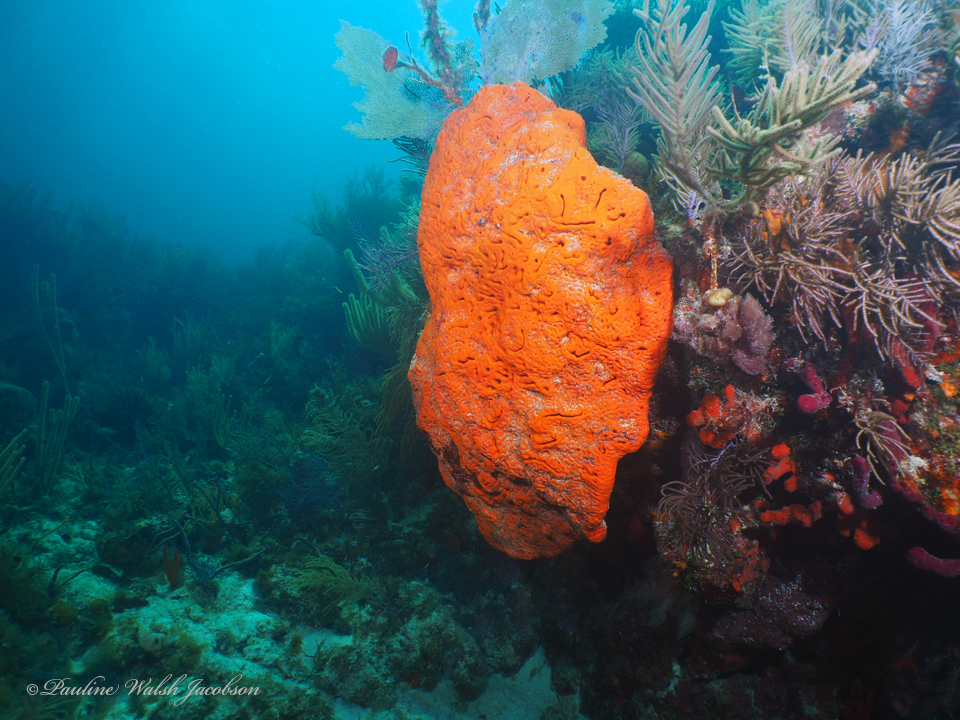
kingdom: Animalia
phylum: Porifera
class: Demospongiae
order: Agelasida
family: Agelasidae
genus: Agelas
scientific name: Agelas clathrodes
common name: Orange elephant ear sponge
